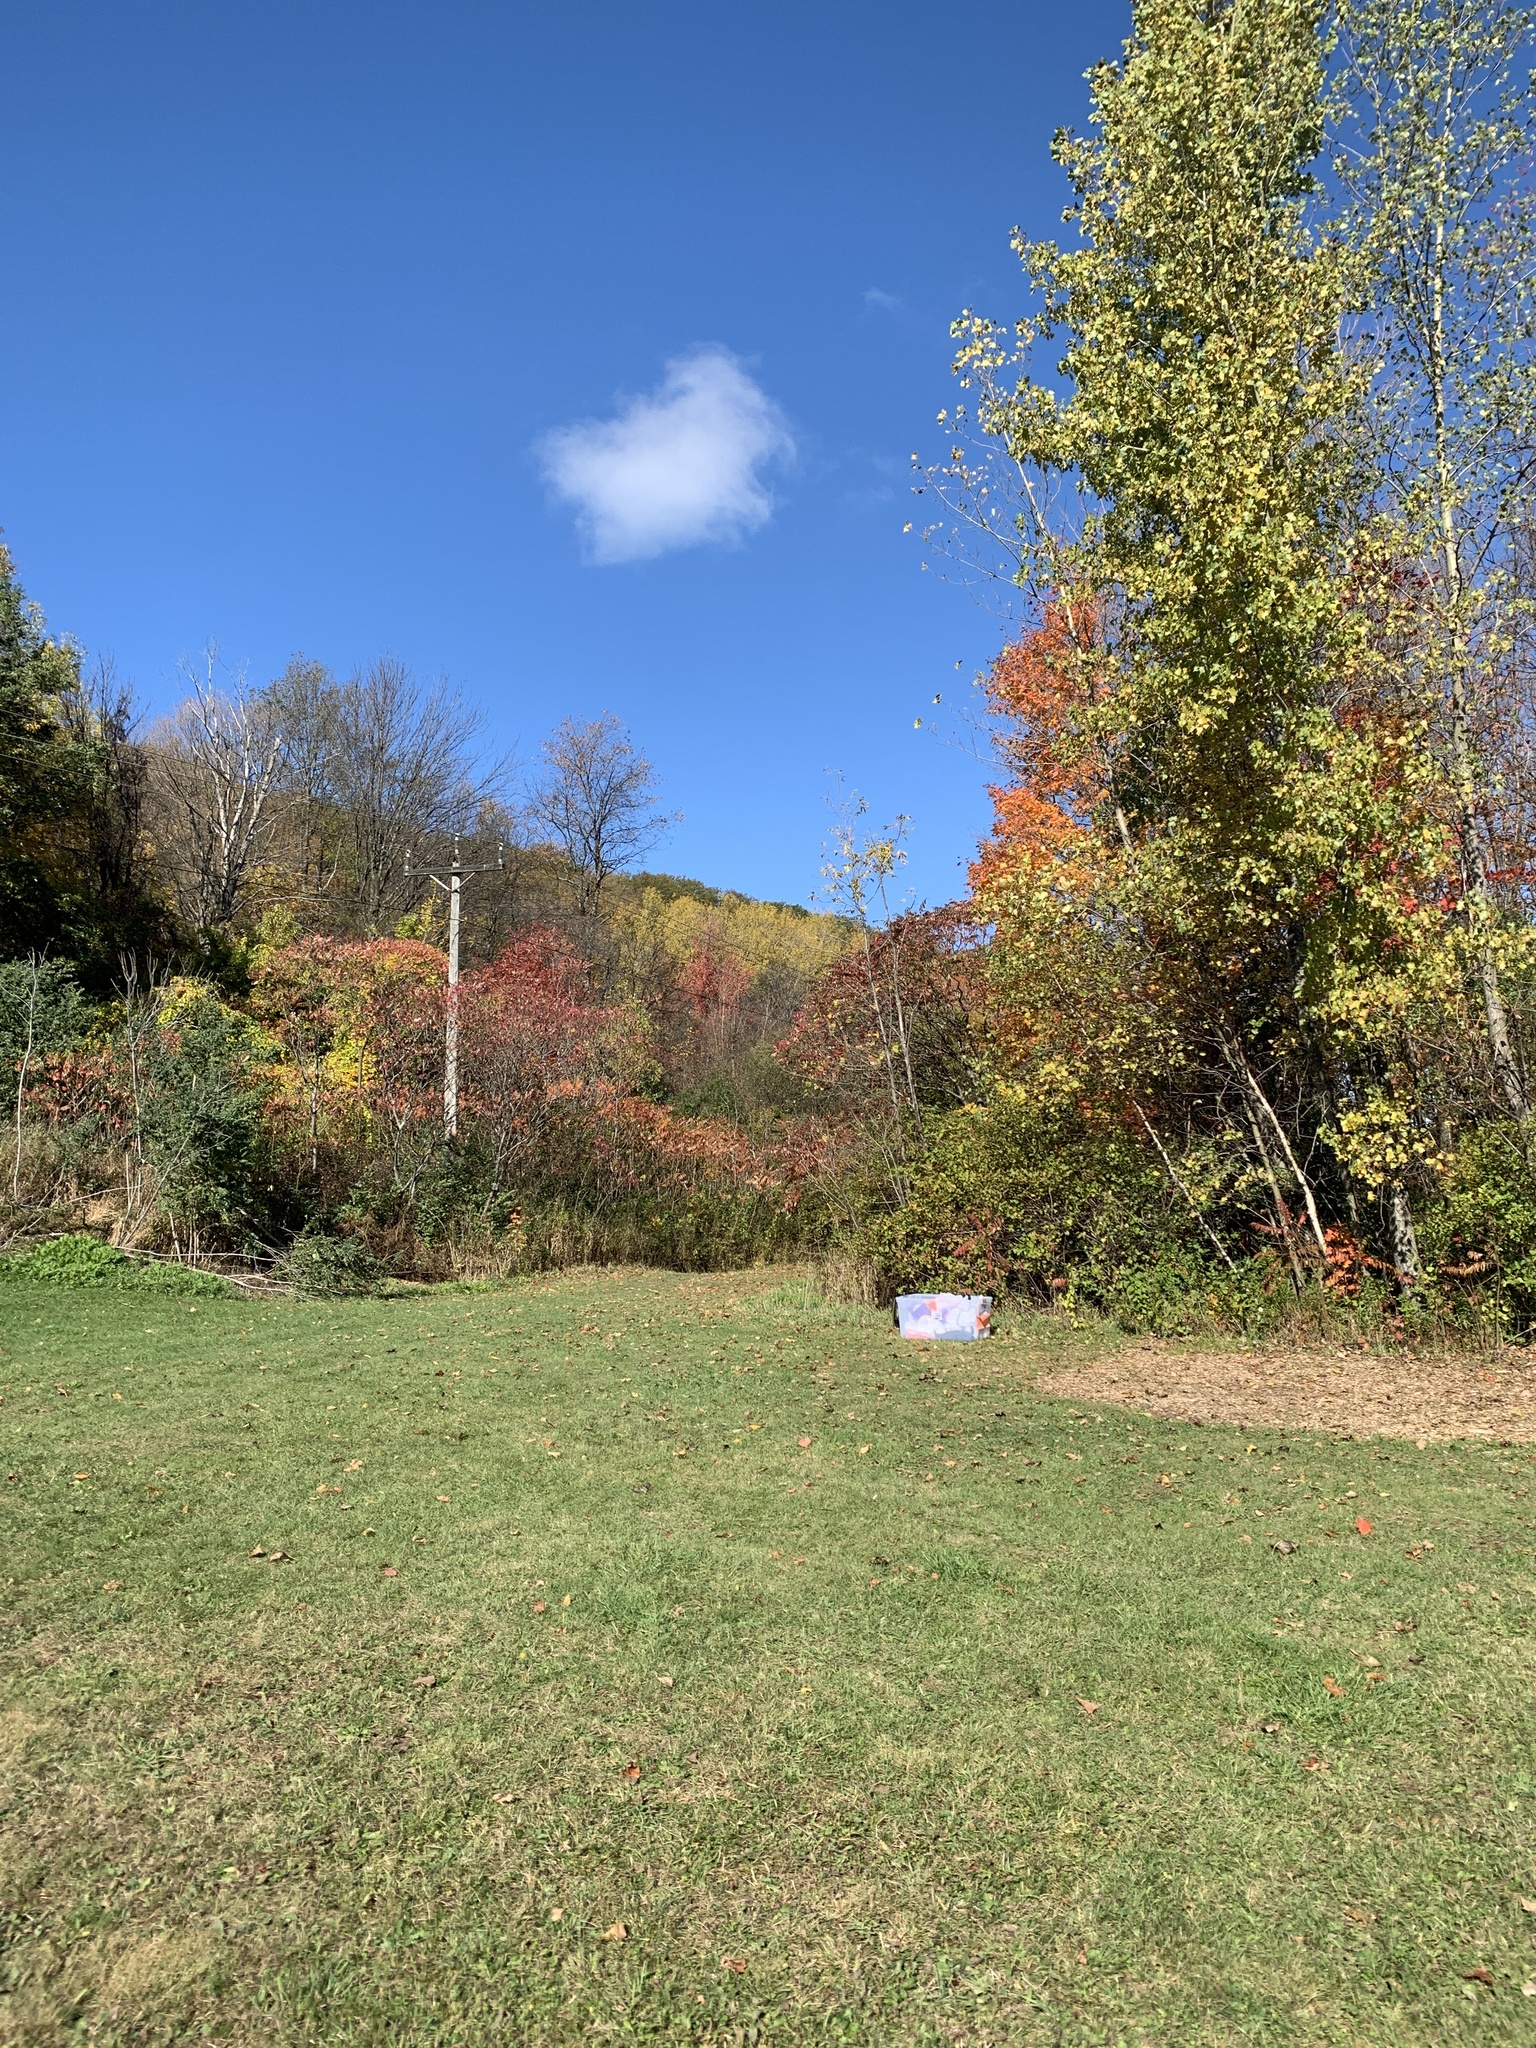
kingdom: Plantae
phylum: Tracheophyta
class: Magnoliopsida
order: Sapindales
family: Anacardiaceae
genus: Rhus
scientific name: Rhus typhina
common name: Staghorn sumac
